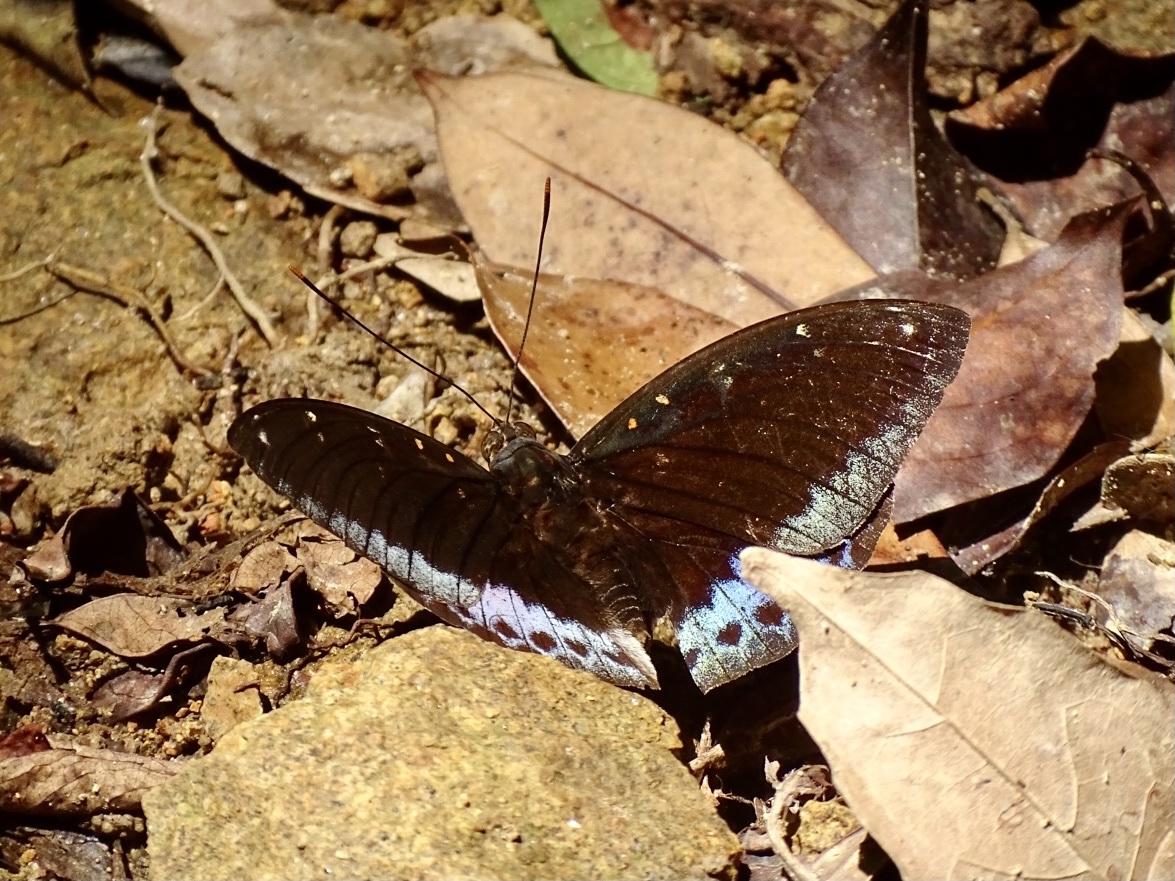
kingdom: Animalia
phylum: Arthropoda
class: Insecta
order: Lepidoptera
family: Nymphalidae
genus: Lexias
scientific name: Lexias pardalis
